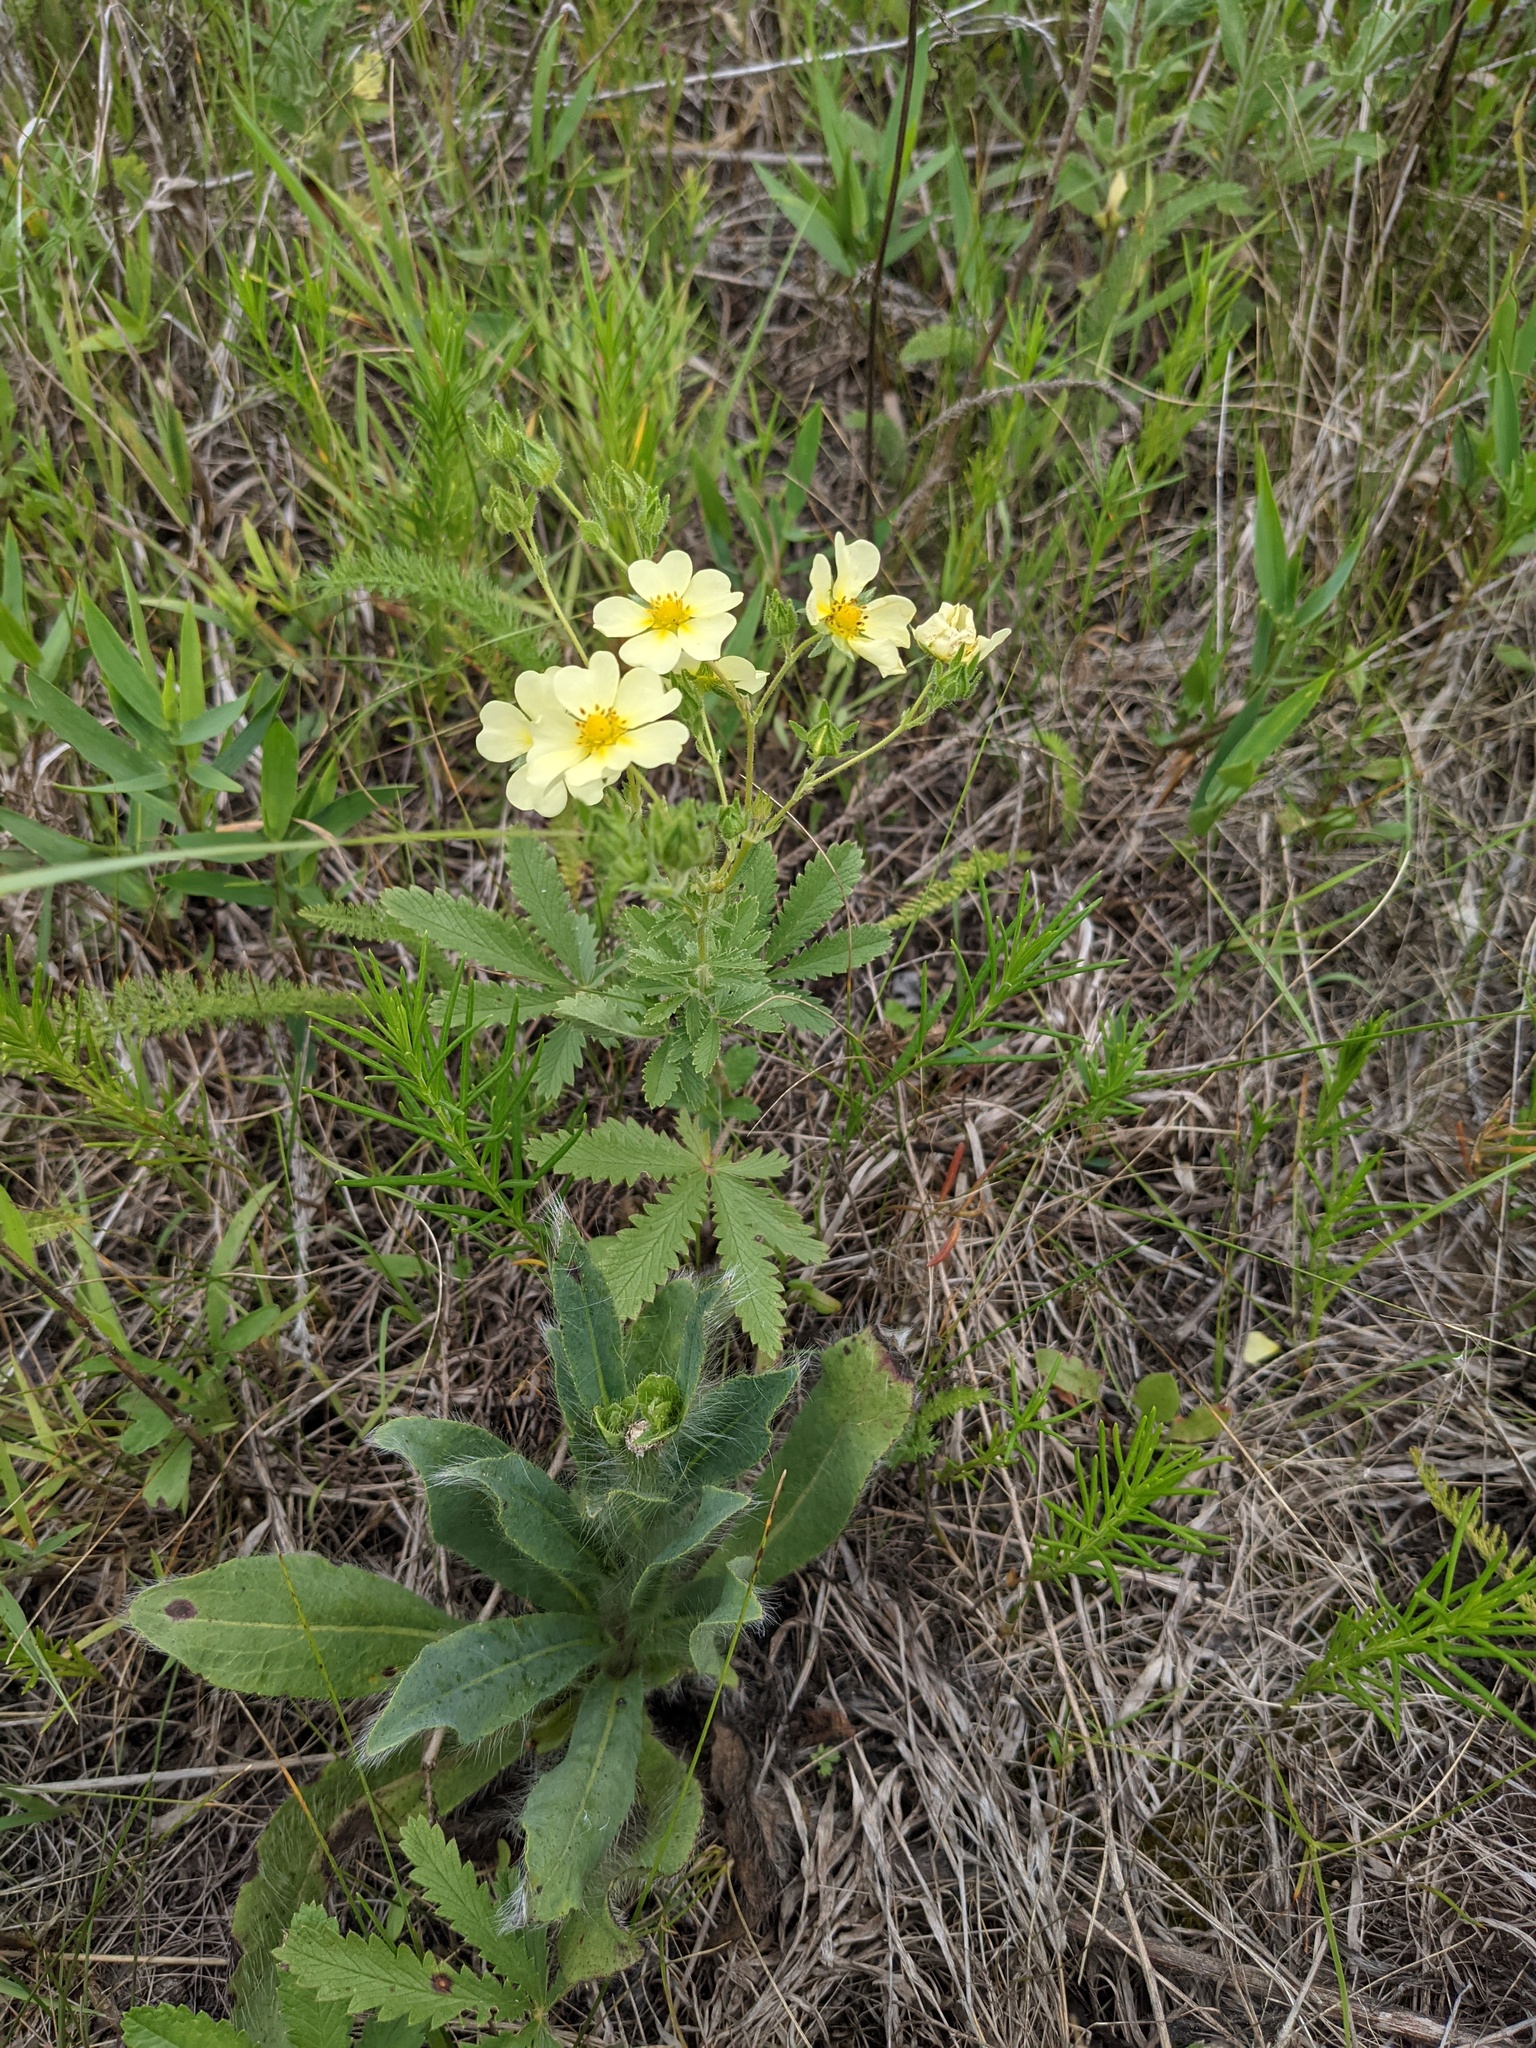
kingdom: Plantae
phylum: Tracheophyta
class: Magnoliopsida
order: Rosales
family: Rosaceae
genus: Potentilla
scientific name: Potentilla recta
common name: Sulphur cinquefoil
